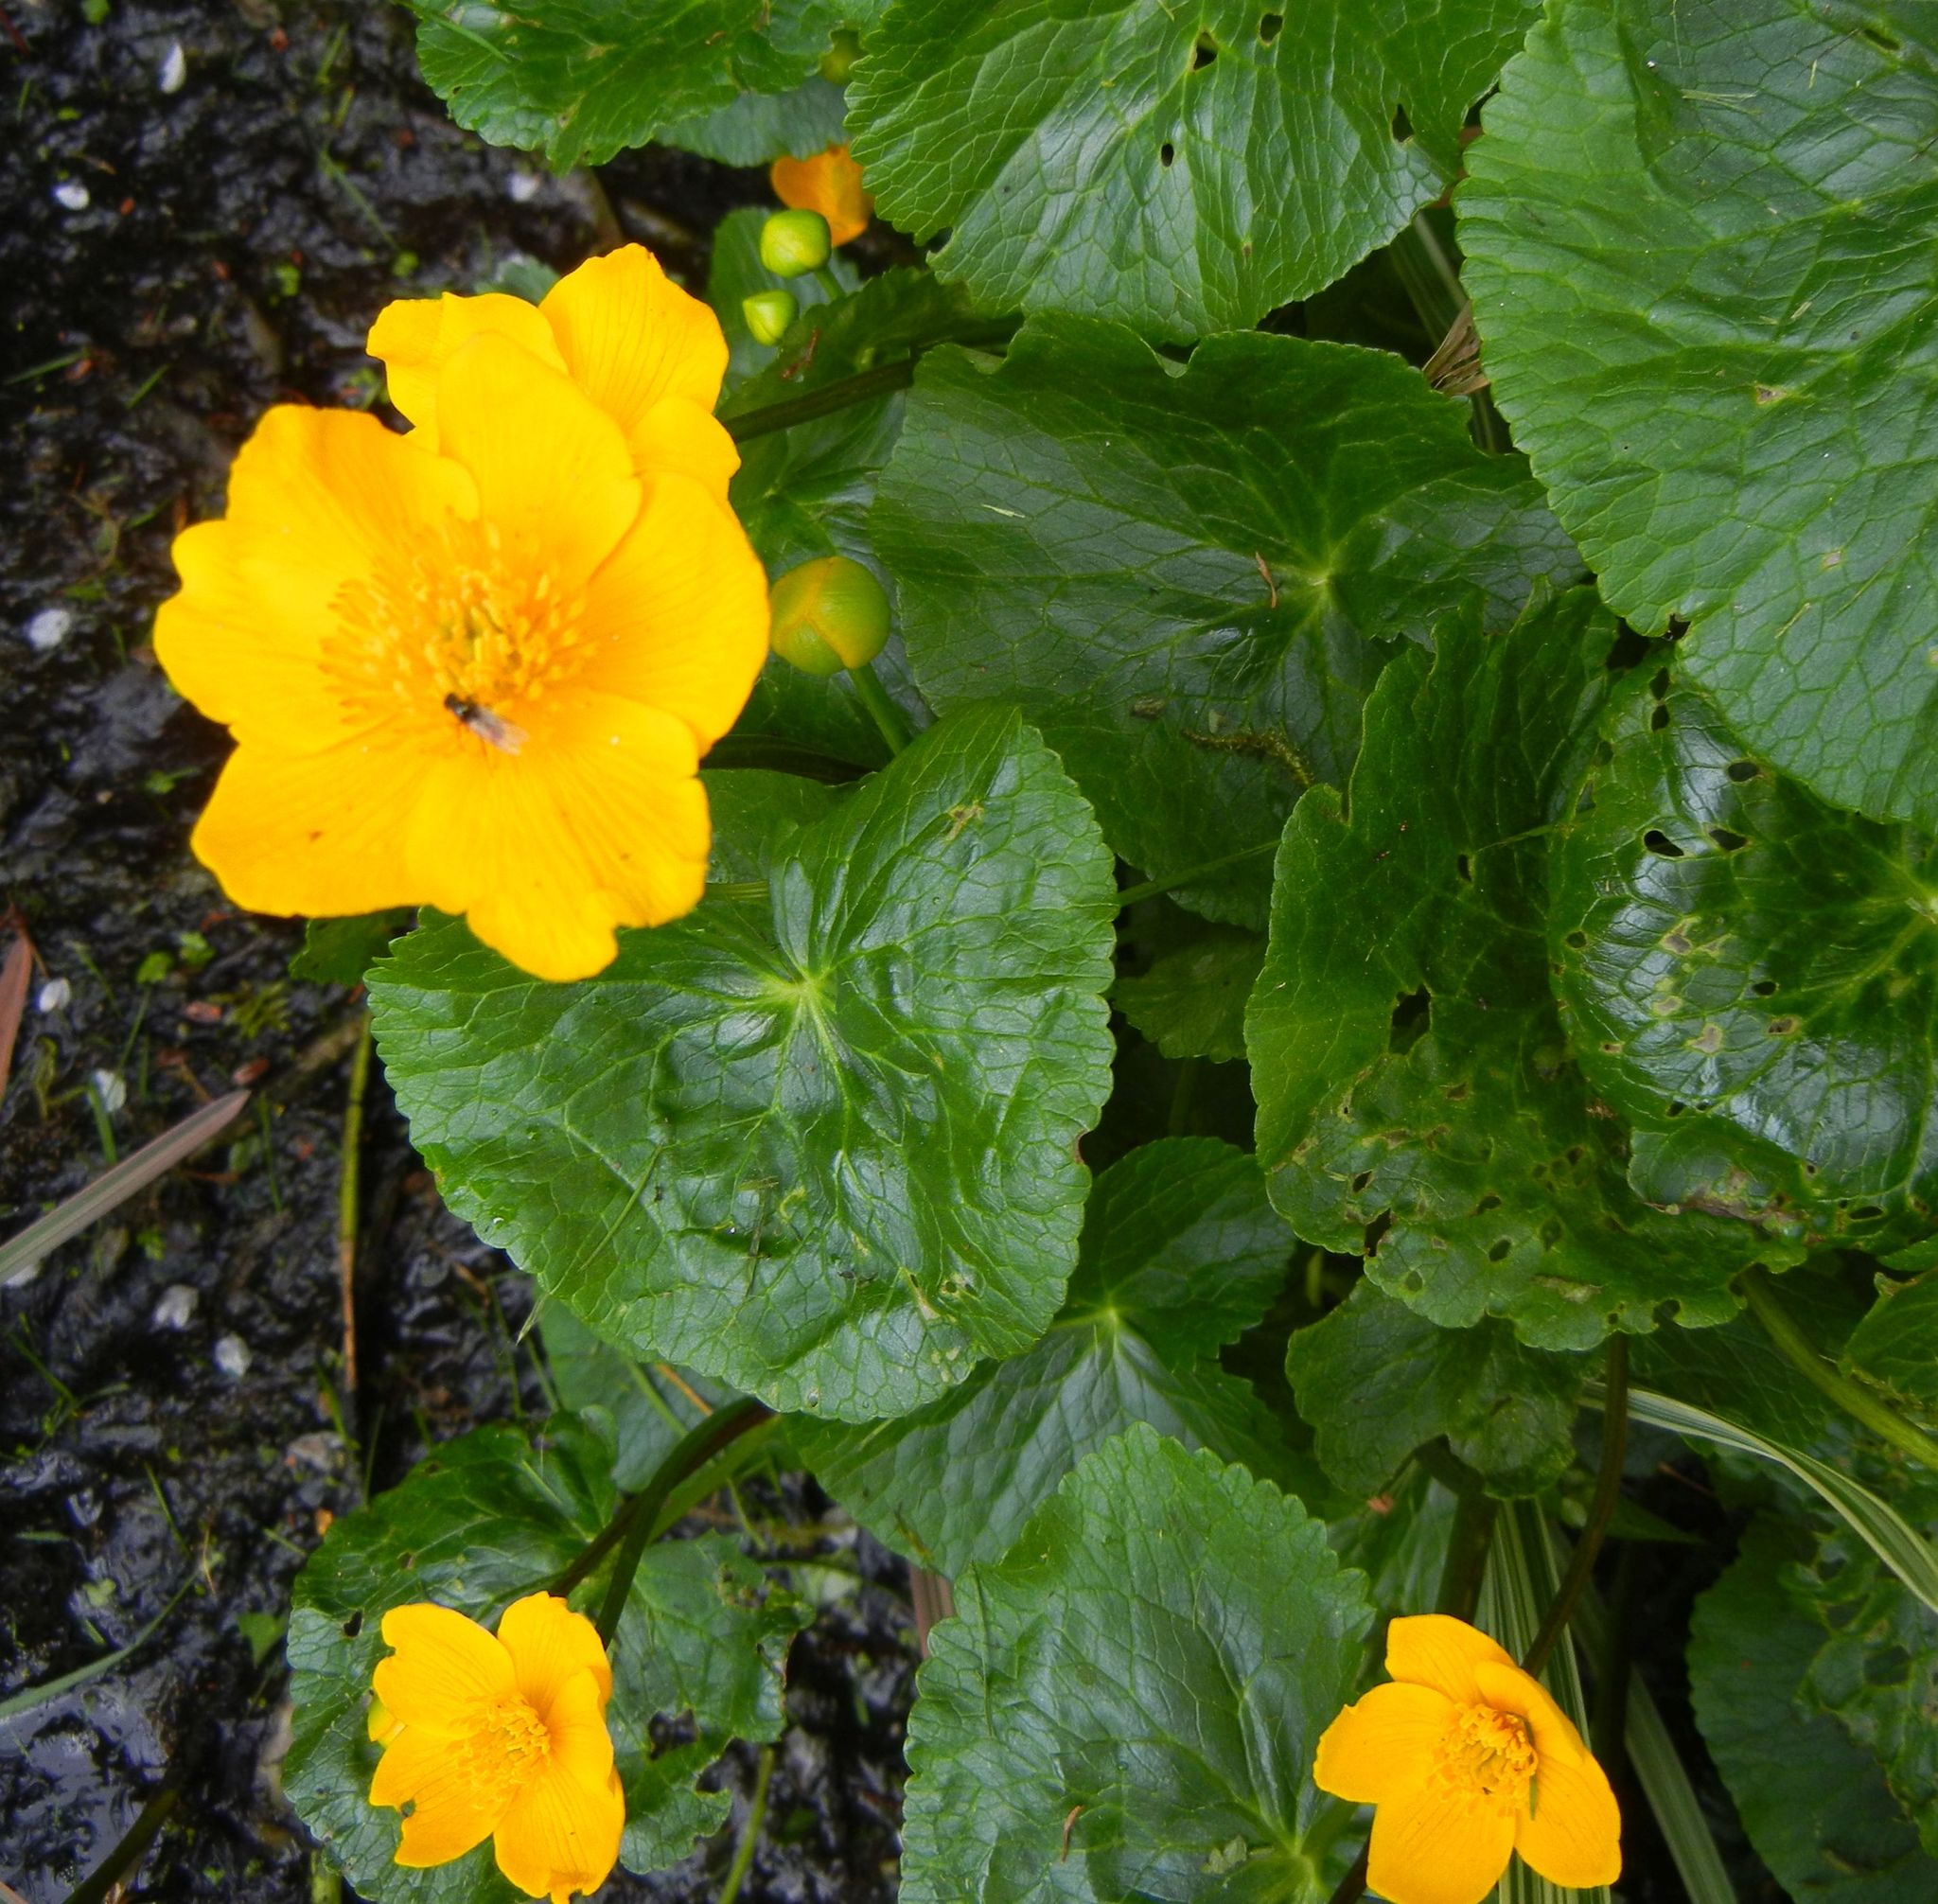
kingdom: Plantae
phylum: Tracheophyta
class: Magnoliopsida
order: Ranunculales
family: Ranunculaceae
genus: Caltha
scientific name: Caltha palustris
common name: Marsh marigold
